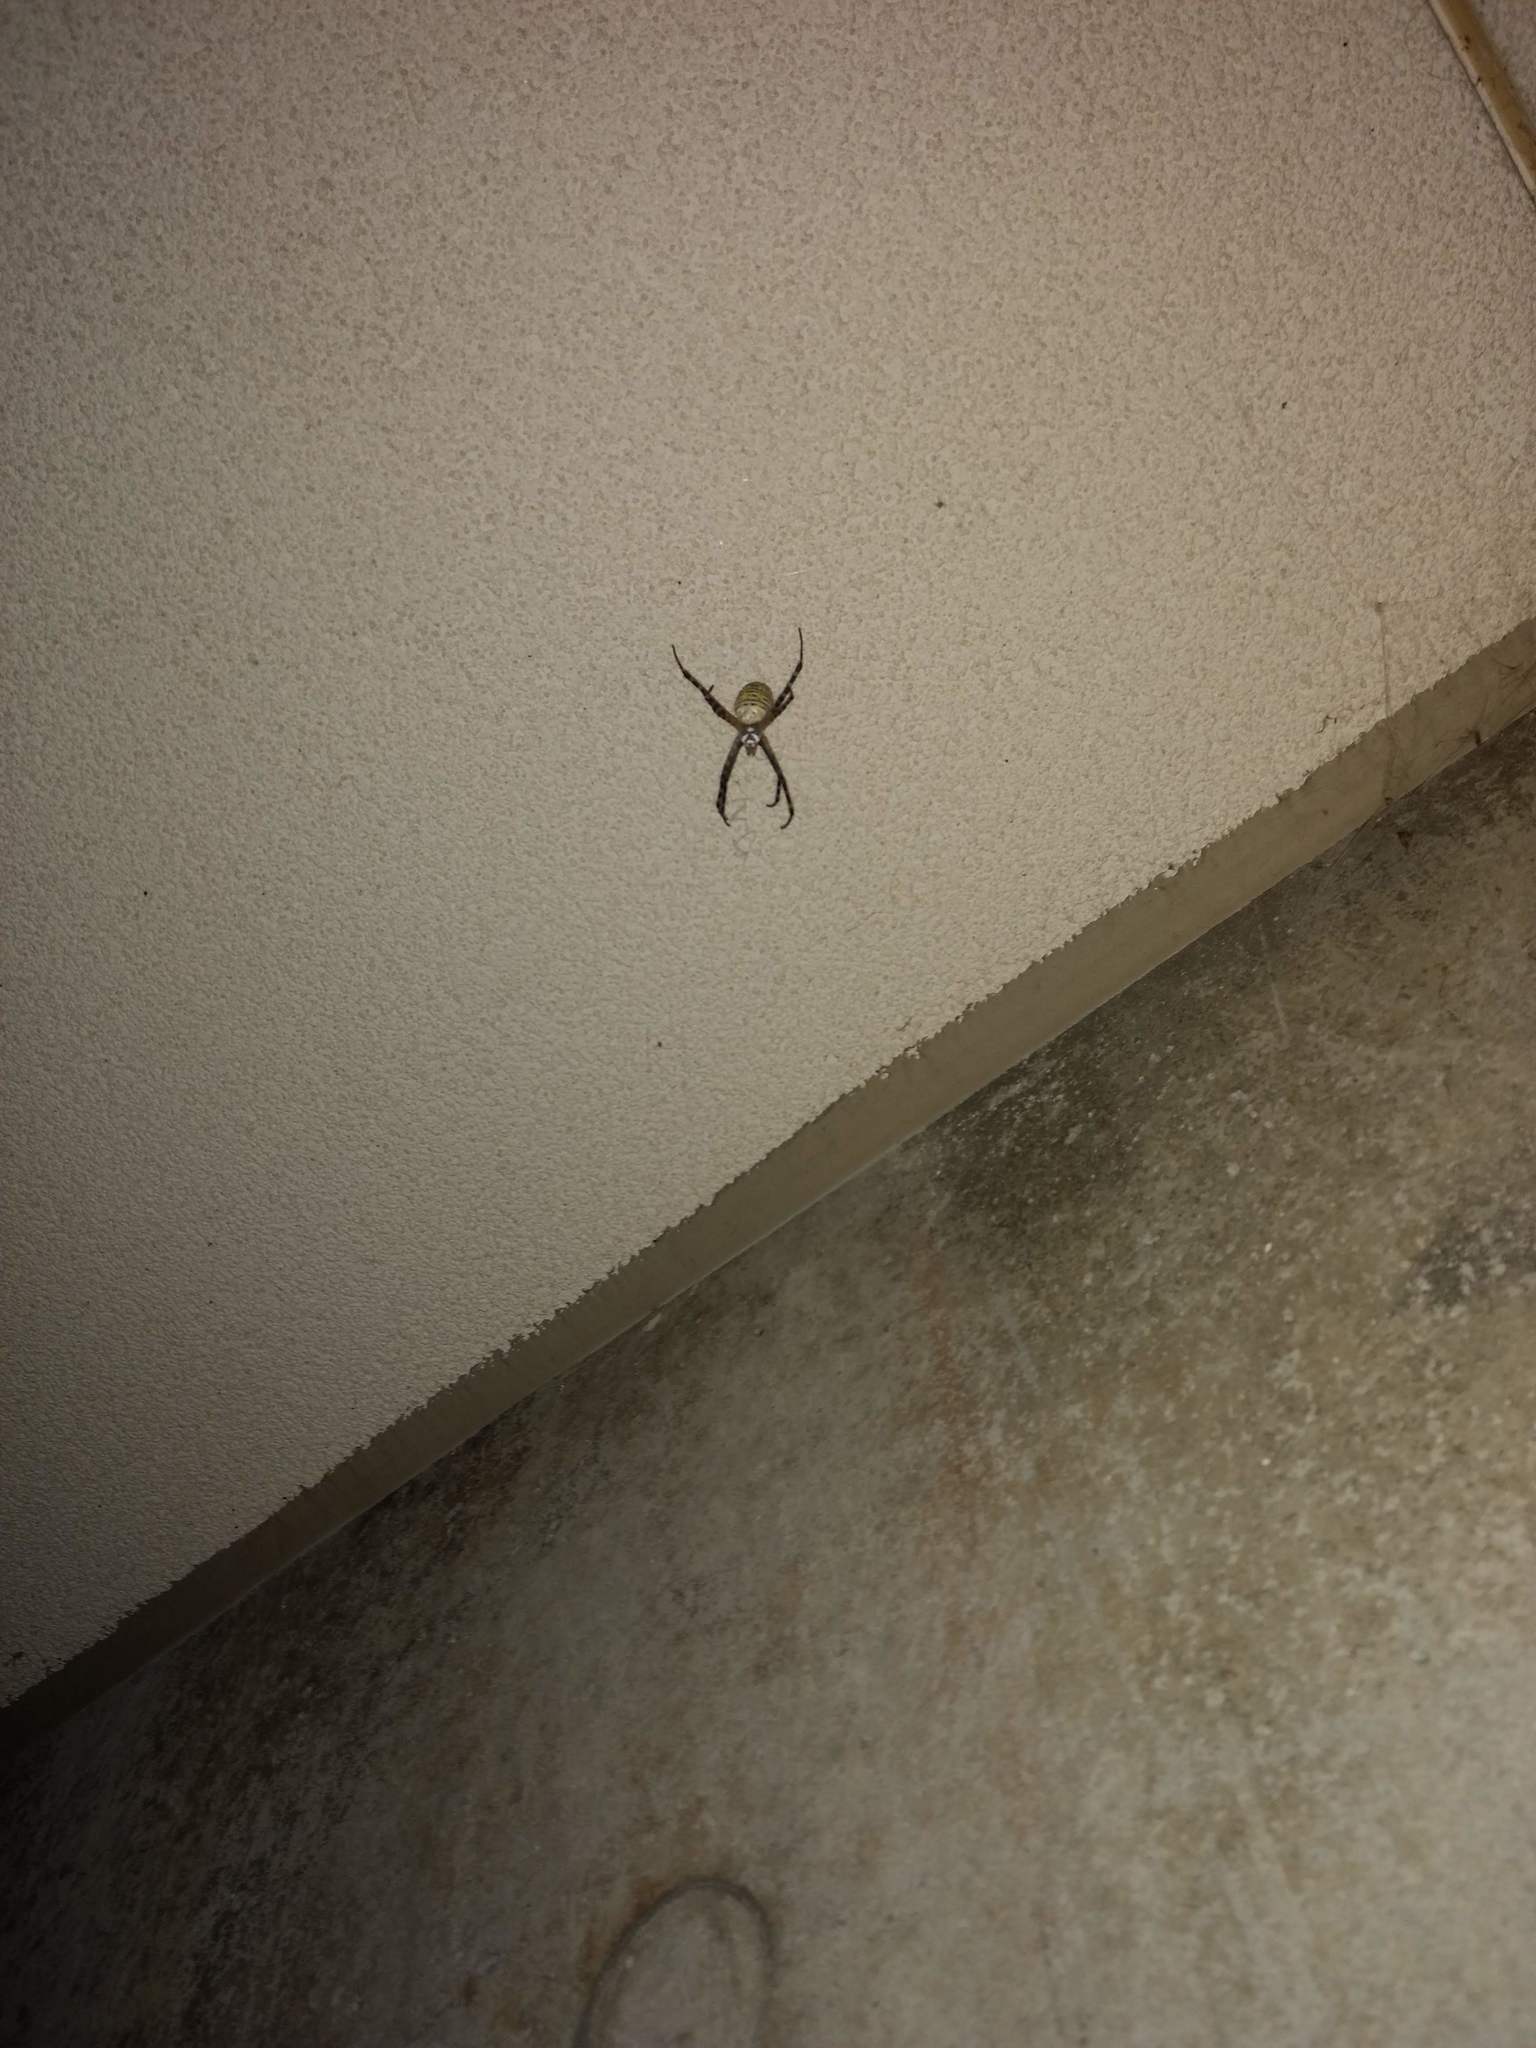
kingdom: Animalia
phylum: Arthropoda
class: Arachnida
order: Araneae
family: Araneidae
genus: Argiope
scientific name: Argiope trifasciata
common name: Banded garden spider
